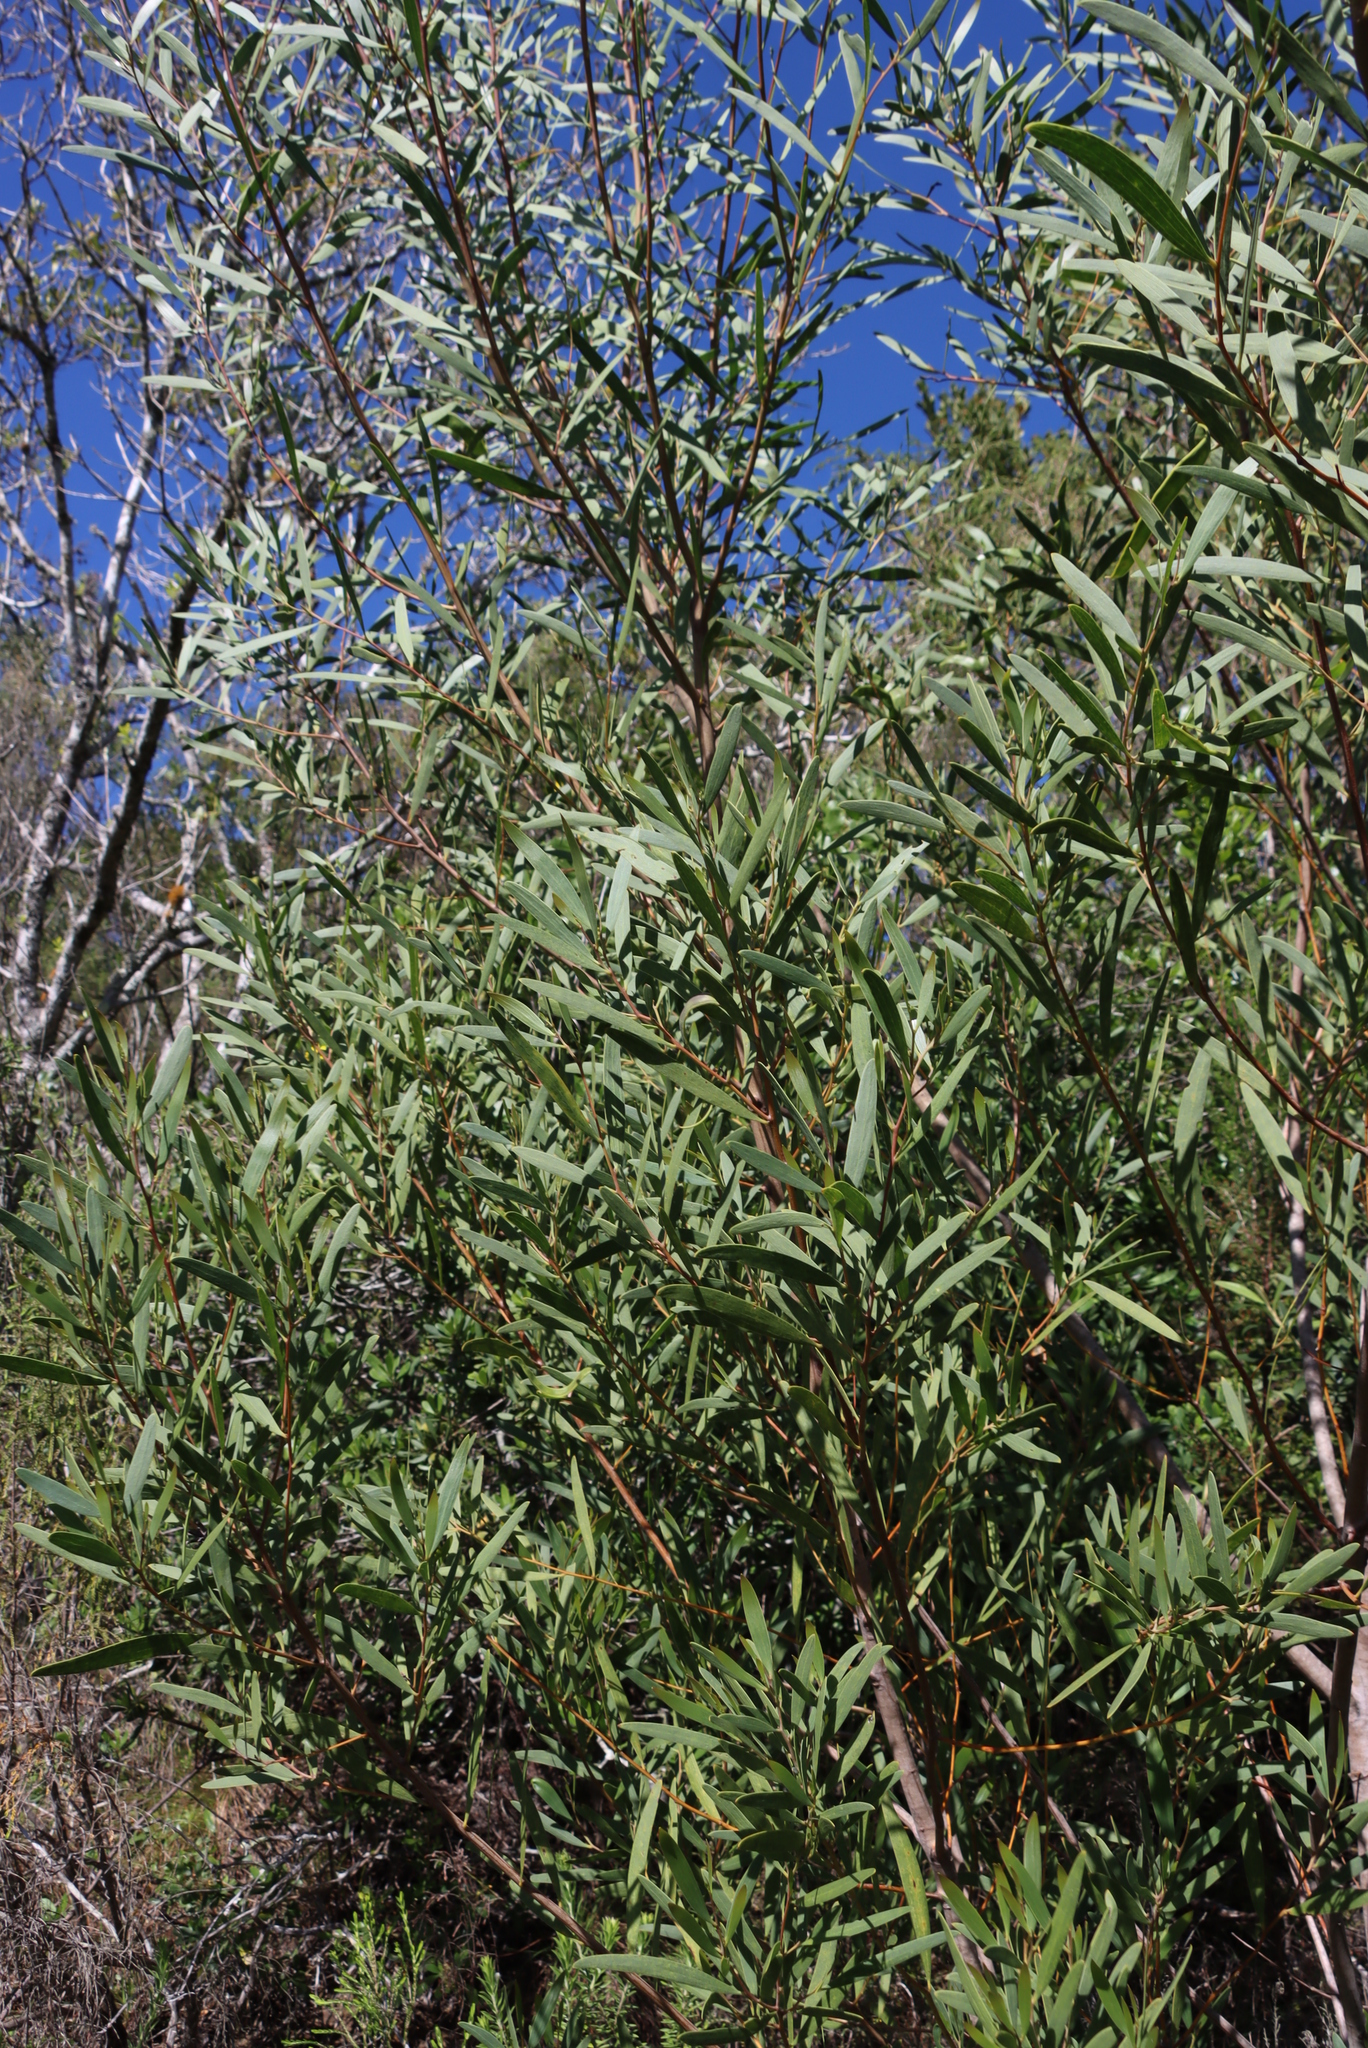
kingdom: Plantae
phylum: Tracheophyta
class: Magnoliopsida
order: Fabales
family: Fabaceae
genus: Acacia
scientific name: Acacia cyclops
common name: Coastal wattle
